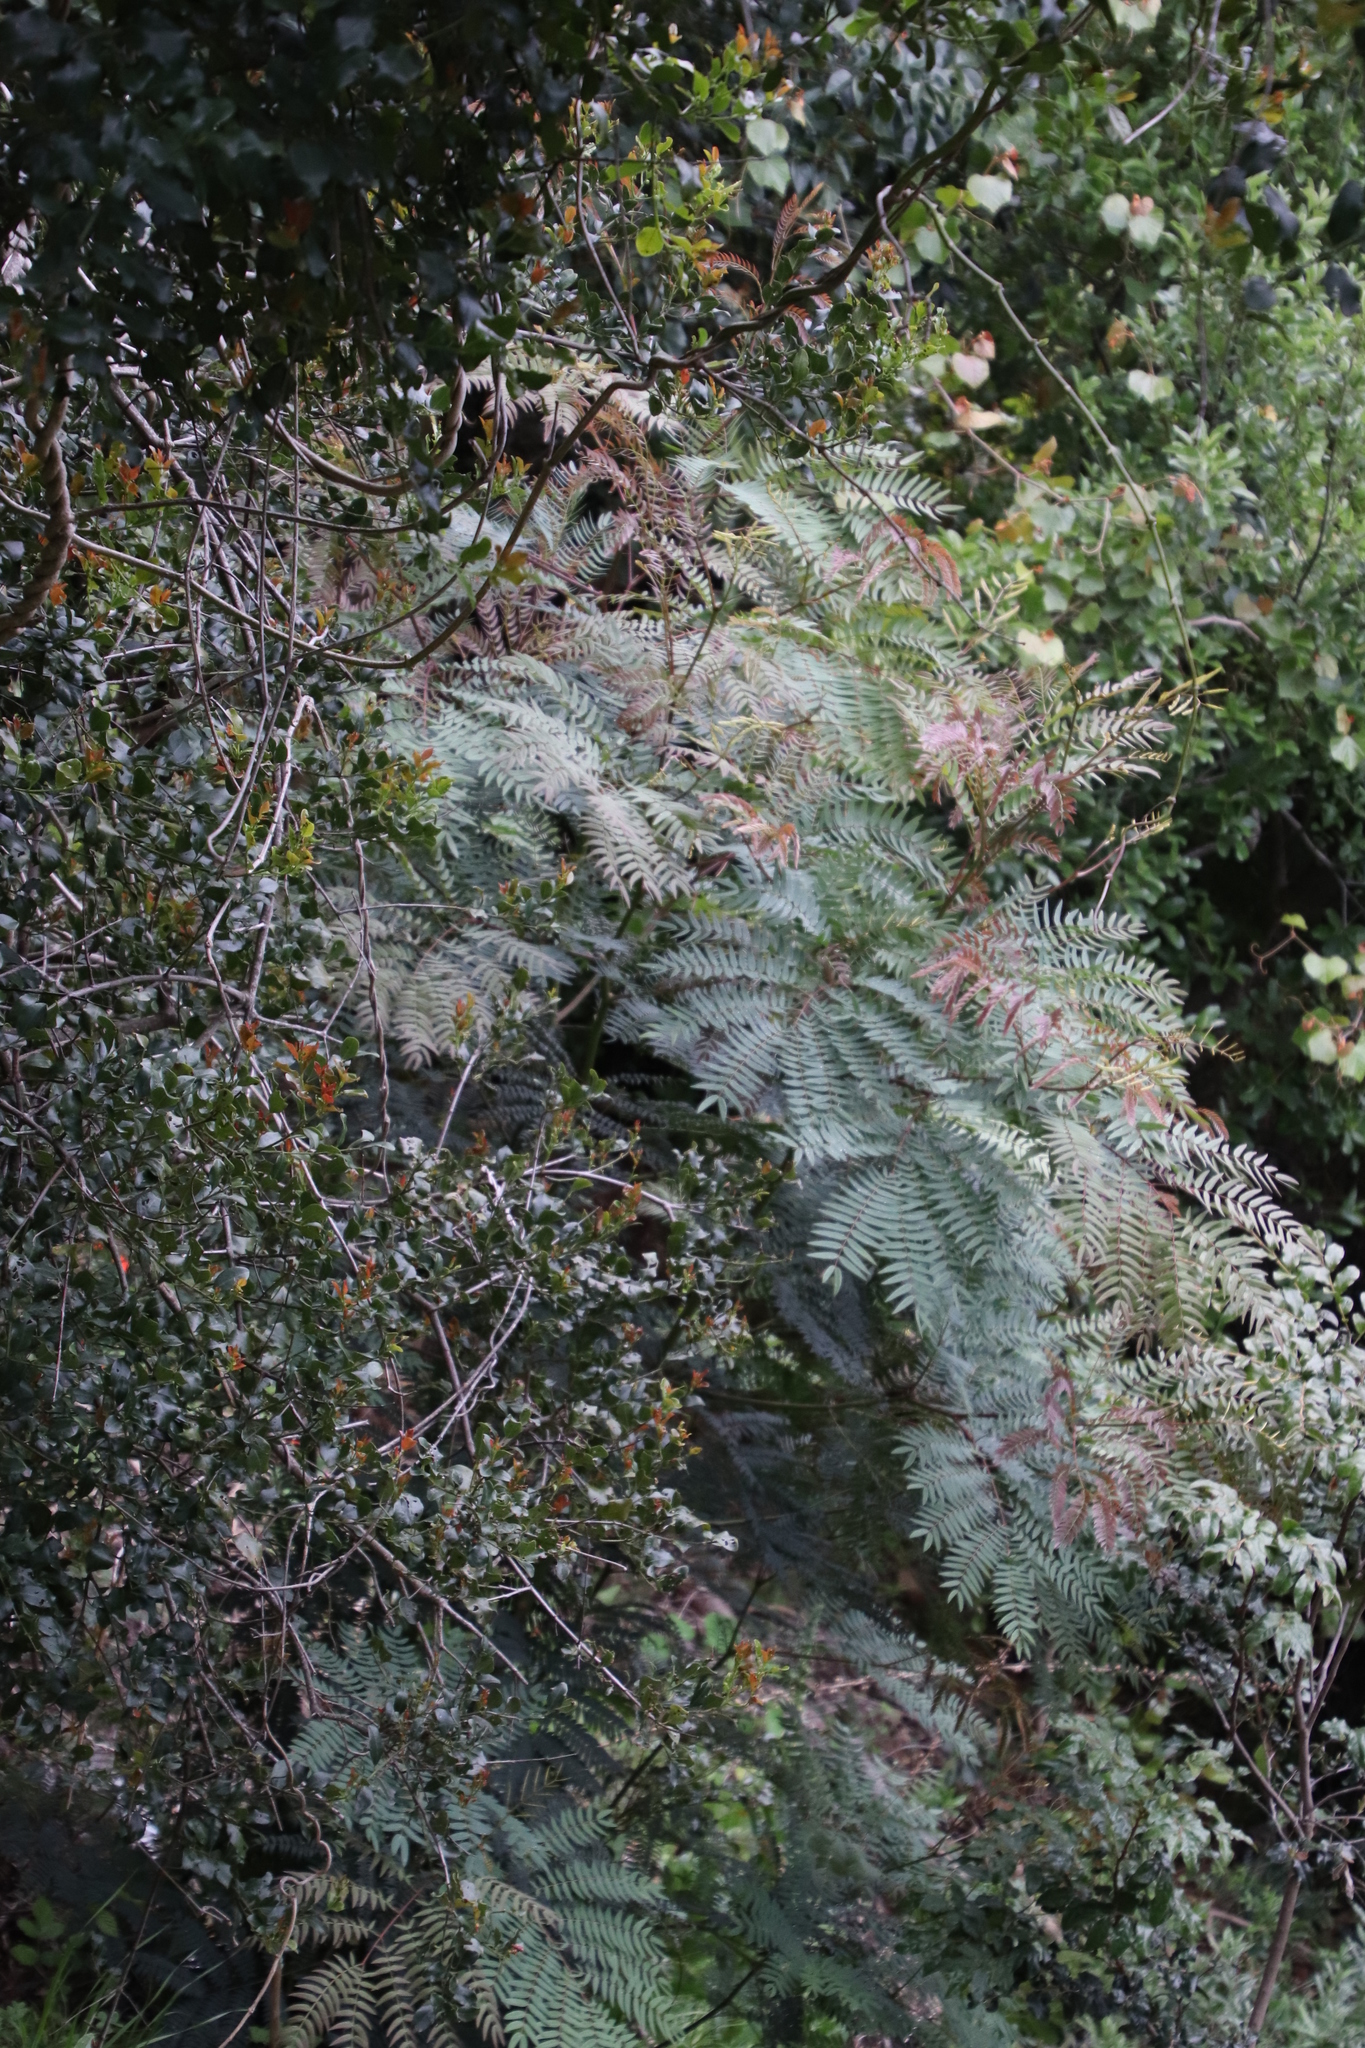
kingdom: Plantae
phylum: Tracheophyta
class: Magnoliopsida
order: Fabales
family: Fabaceae
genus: Acacia
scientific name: Acacia elata
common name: Cedar wattle
